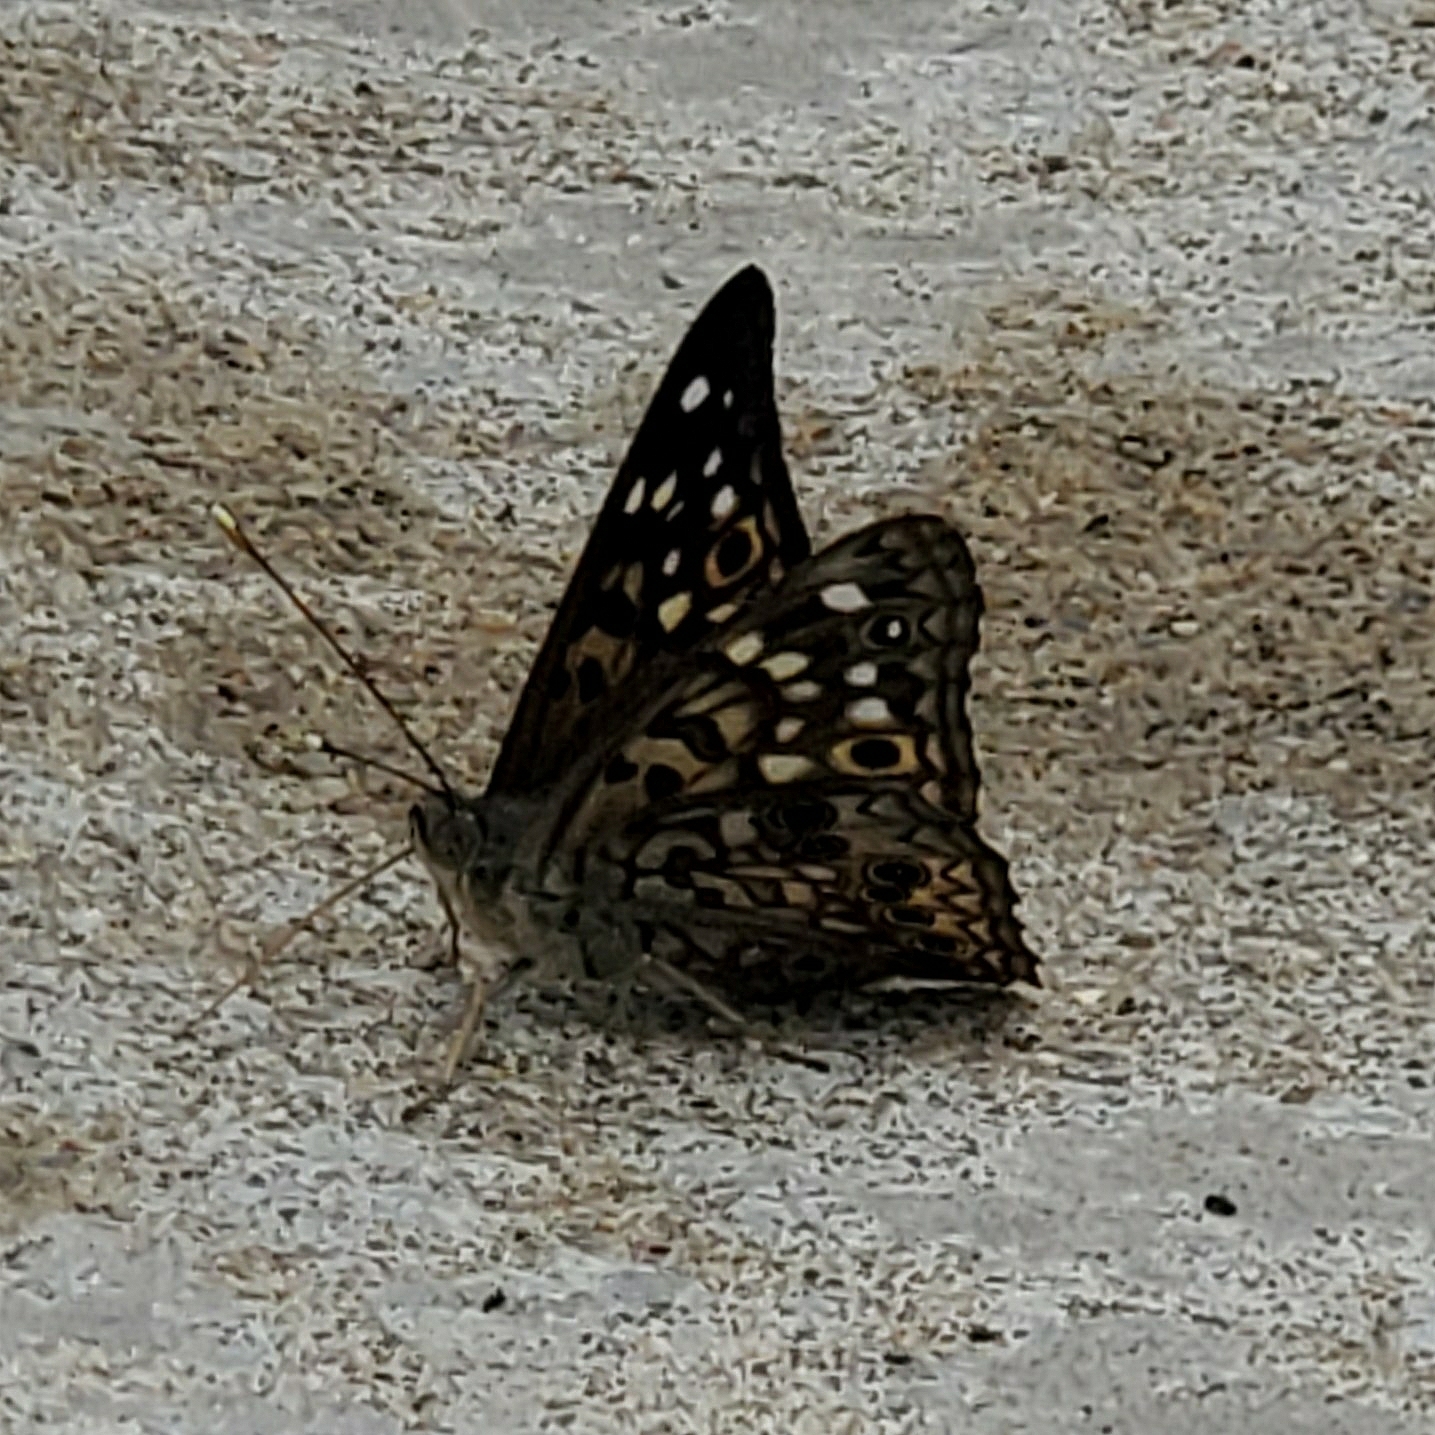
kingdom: Animalia
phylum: Arthropoda
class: Insecta
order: Lepidoptera
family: Nymphalidae
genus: Asterocampa
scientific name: Asterocampa celtis
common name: Hackberry emperor
